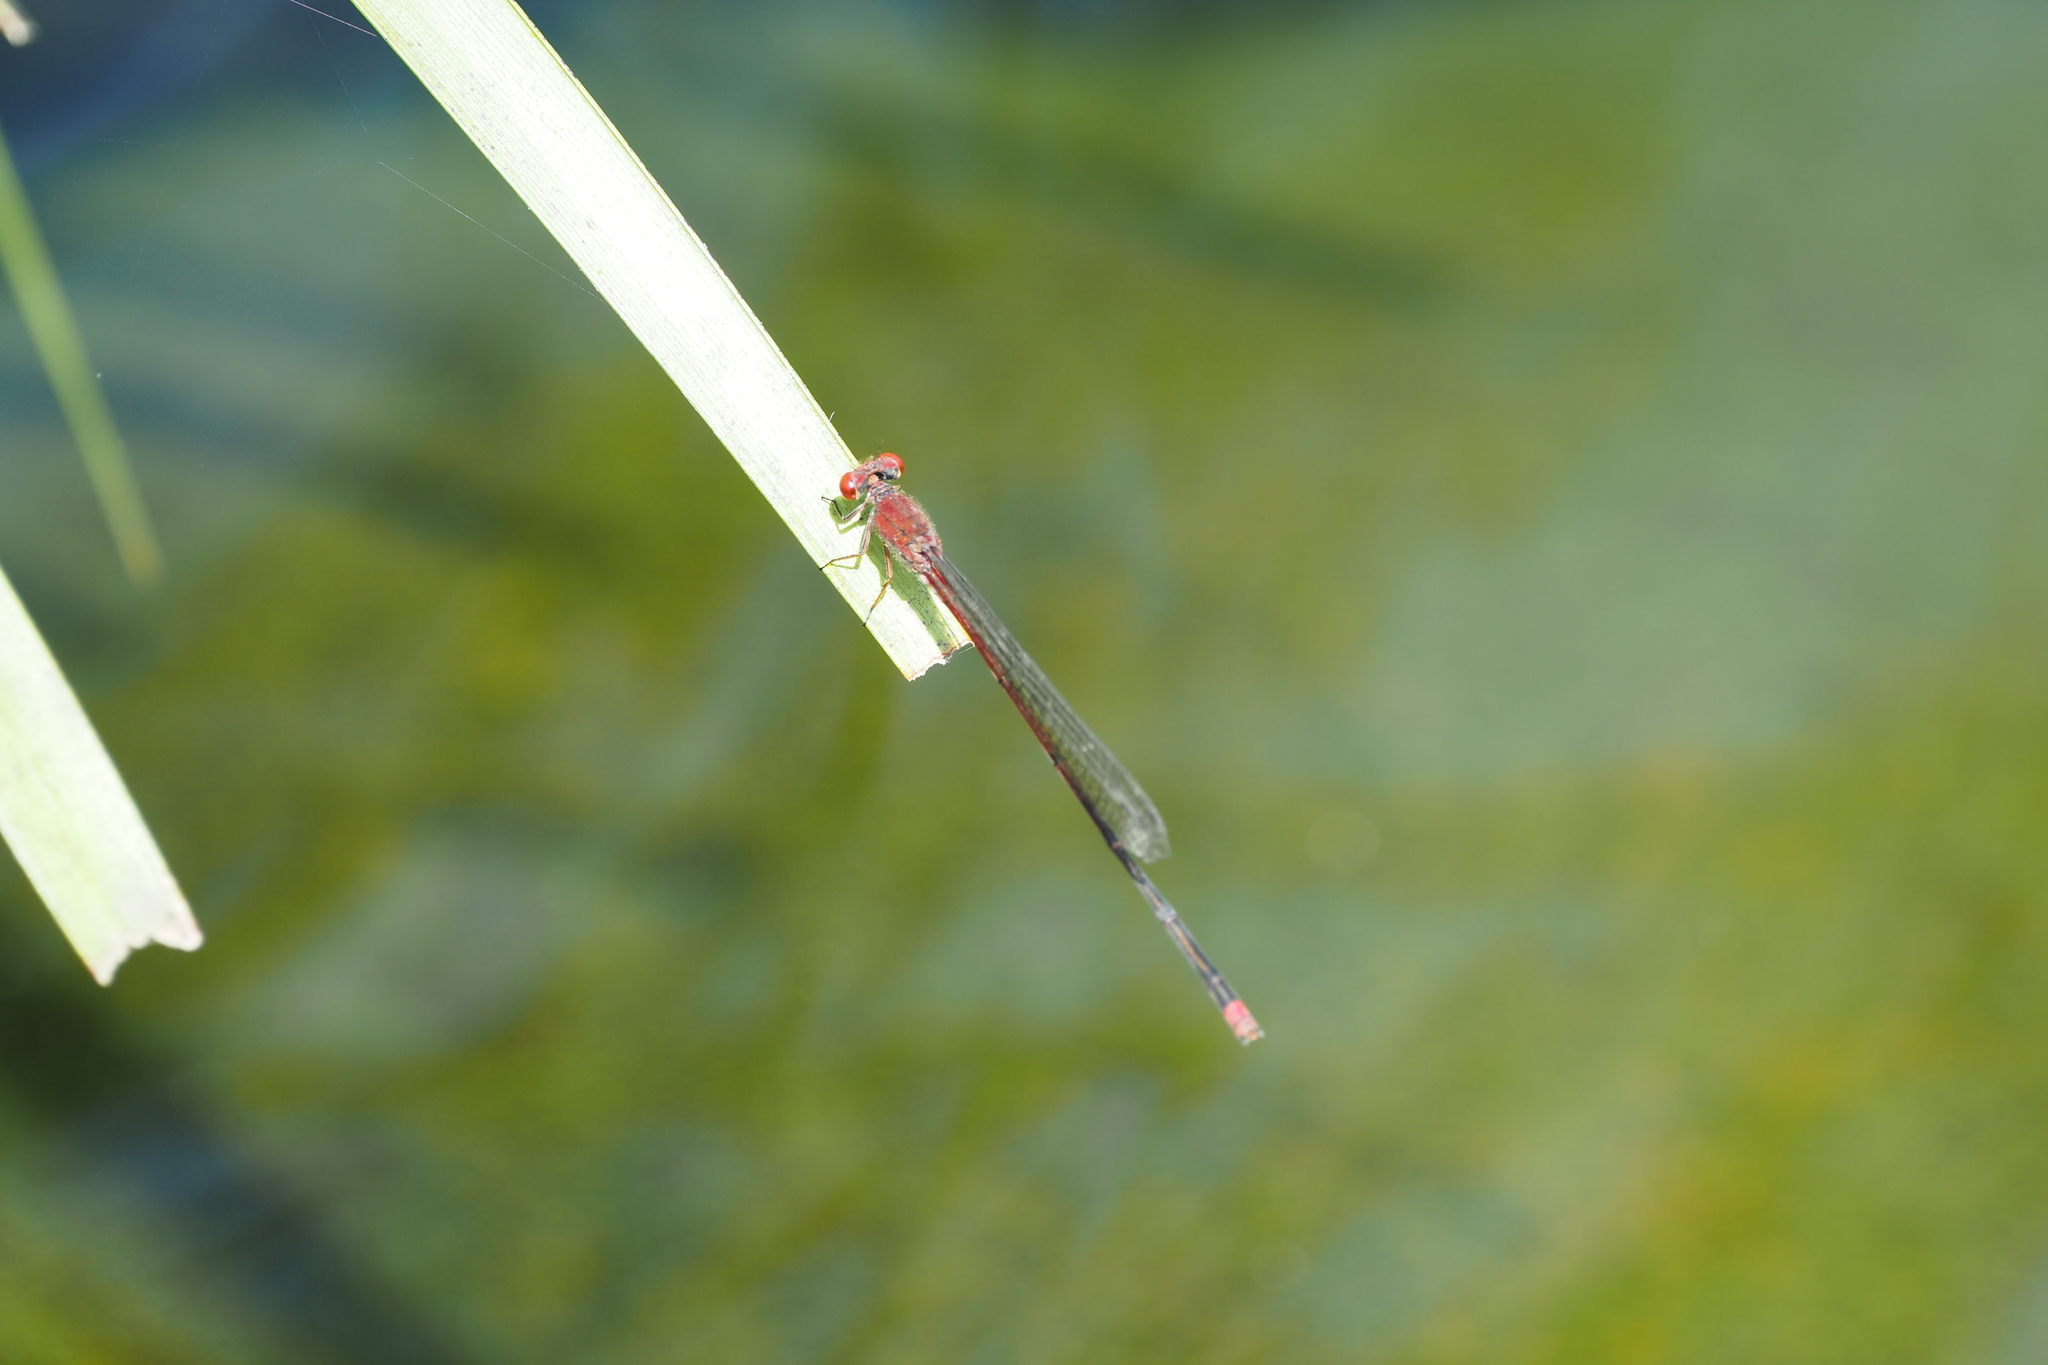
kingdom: Animalia
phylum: Arthropoda
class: Insecta
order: Odonata
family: Coenagrionidae
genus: Pseudagrion
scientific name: Pseudagrion pilidorsum
